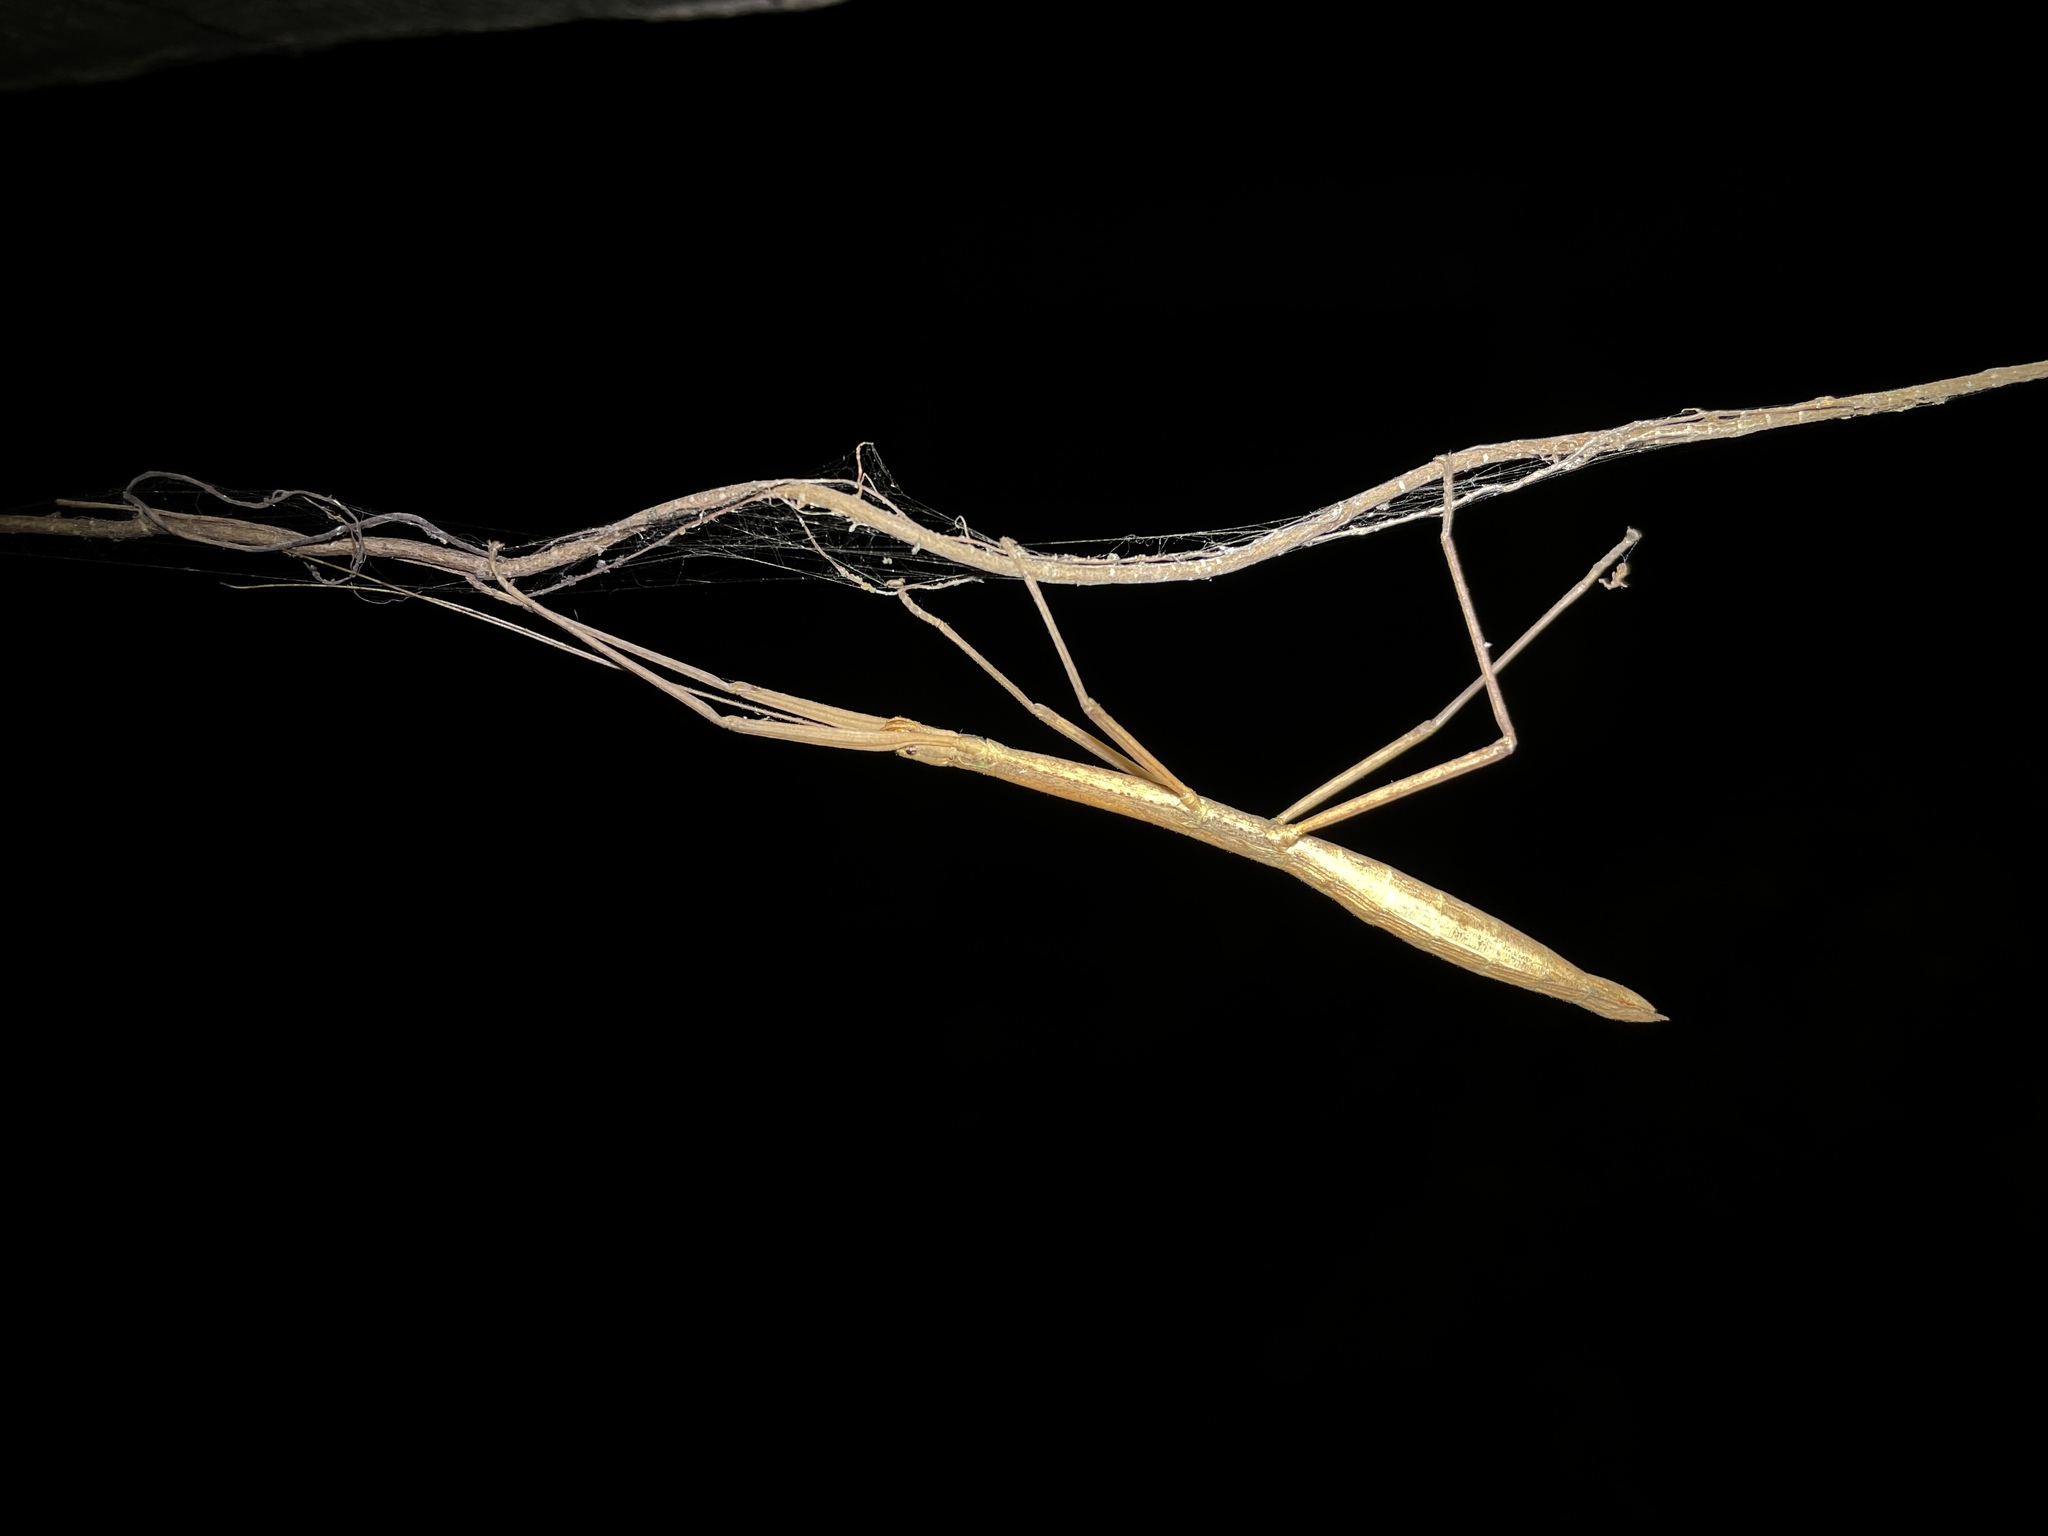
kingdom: Animalia
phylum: Arthropoda
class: Insecta
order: Phasmida
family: Lonchodidae
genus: Lopaphus
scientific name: Lopaphus balteatus
